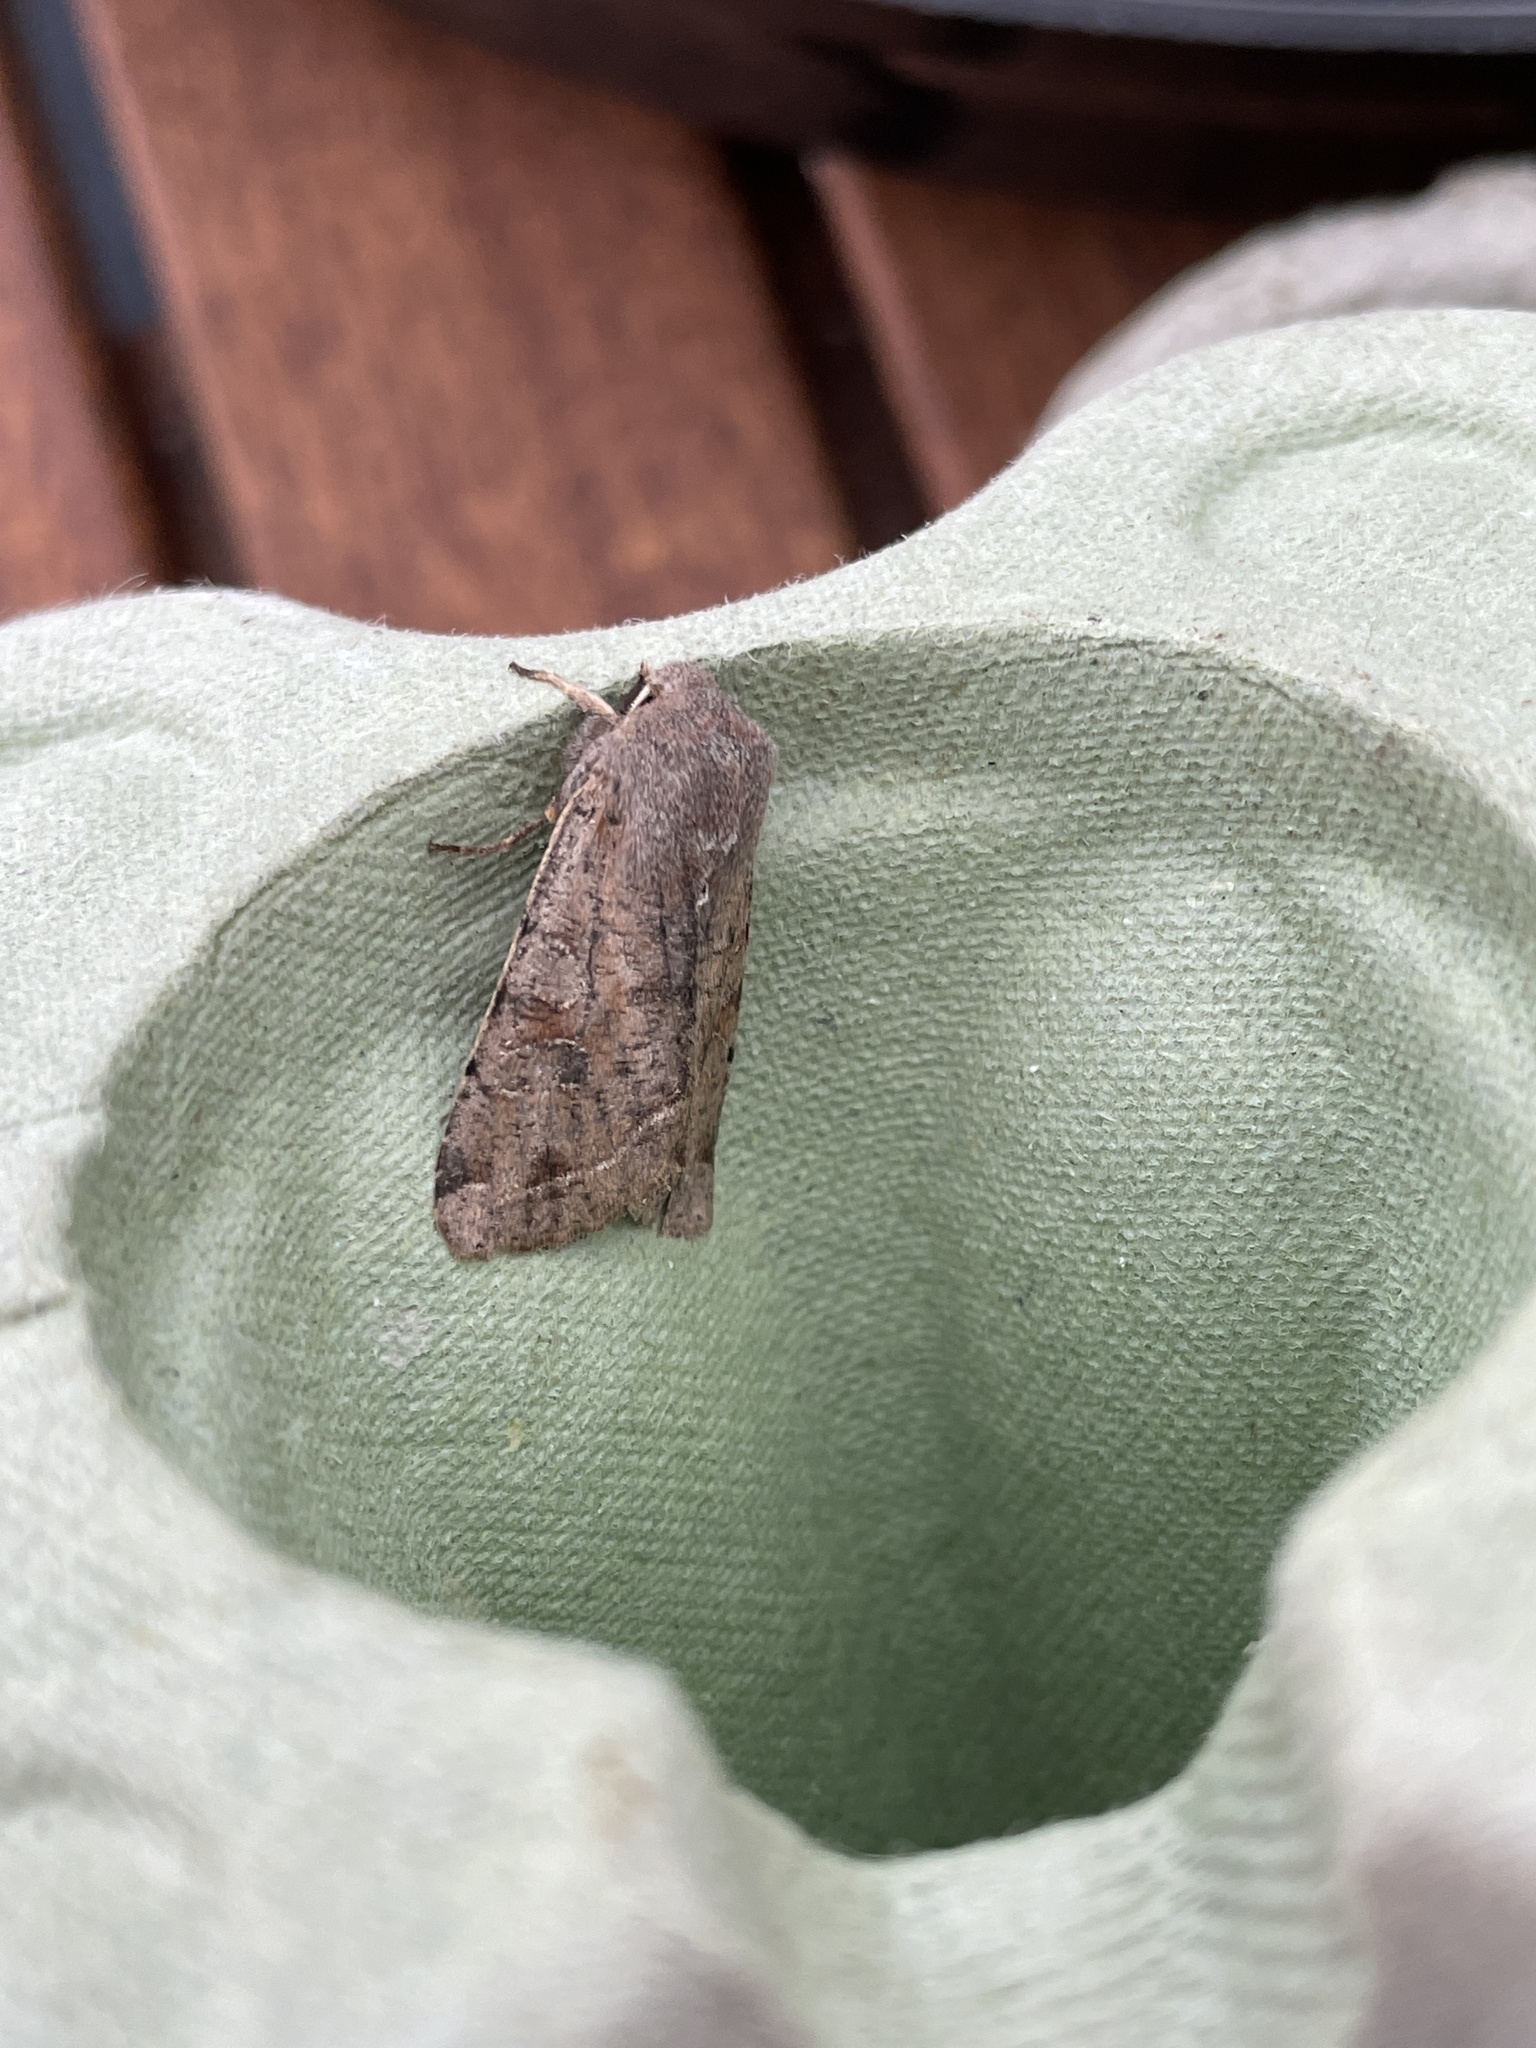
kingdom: Animalia
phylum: Arthropoda
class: Insecta
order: Lepidoptera
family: Noctuidae
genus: Orthosia
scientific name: Orthosia incerta
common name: Clouded drab
